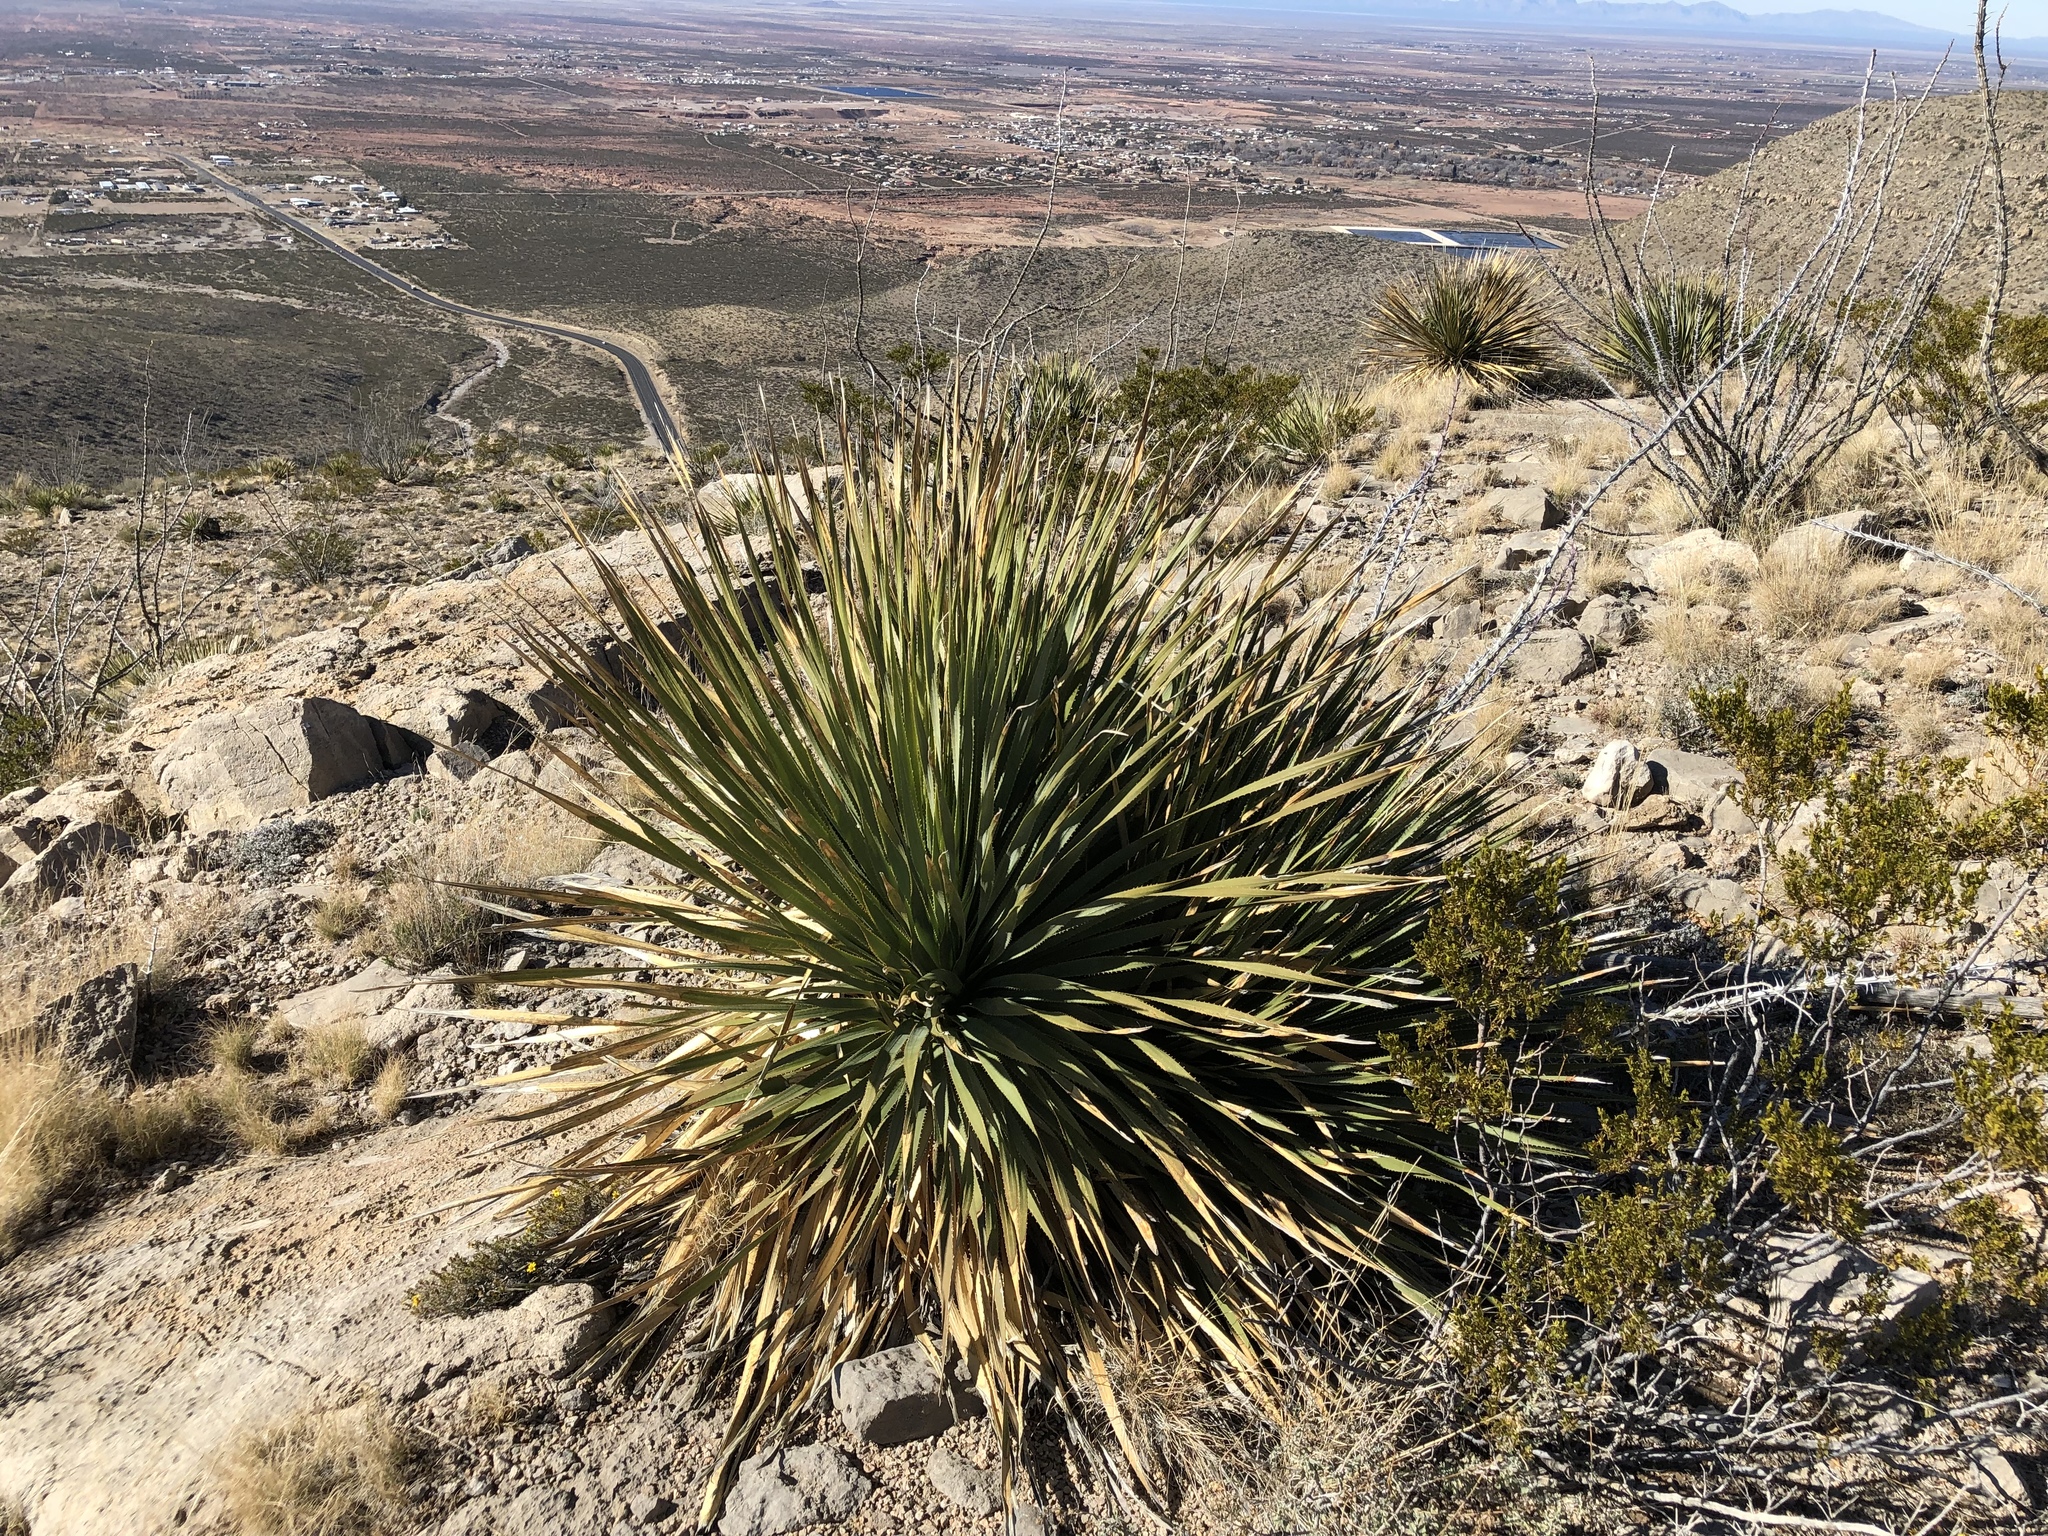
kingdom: Plantae
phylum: Tracheophyta
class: Liliopsida
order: Asparagales
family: Asparagaceae
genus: Dasylirion
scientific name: Dasylirion wheeleri
